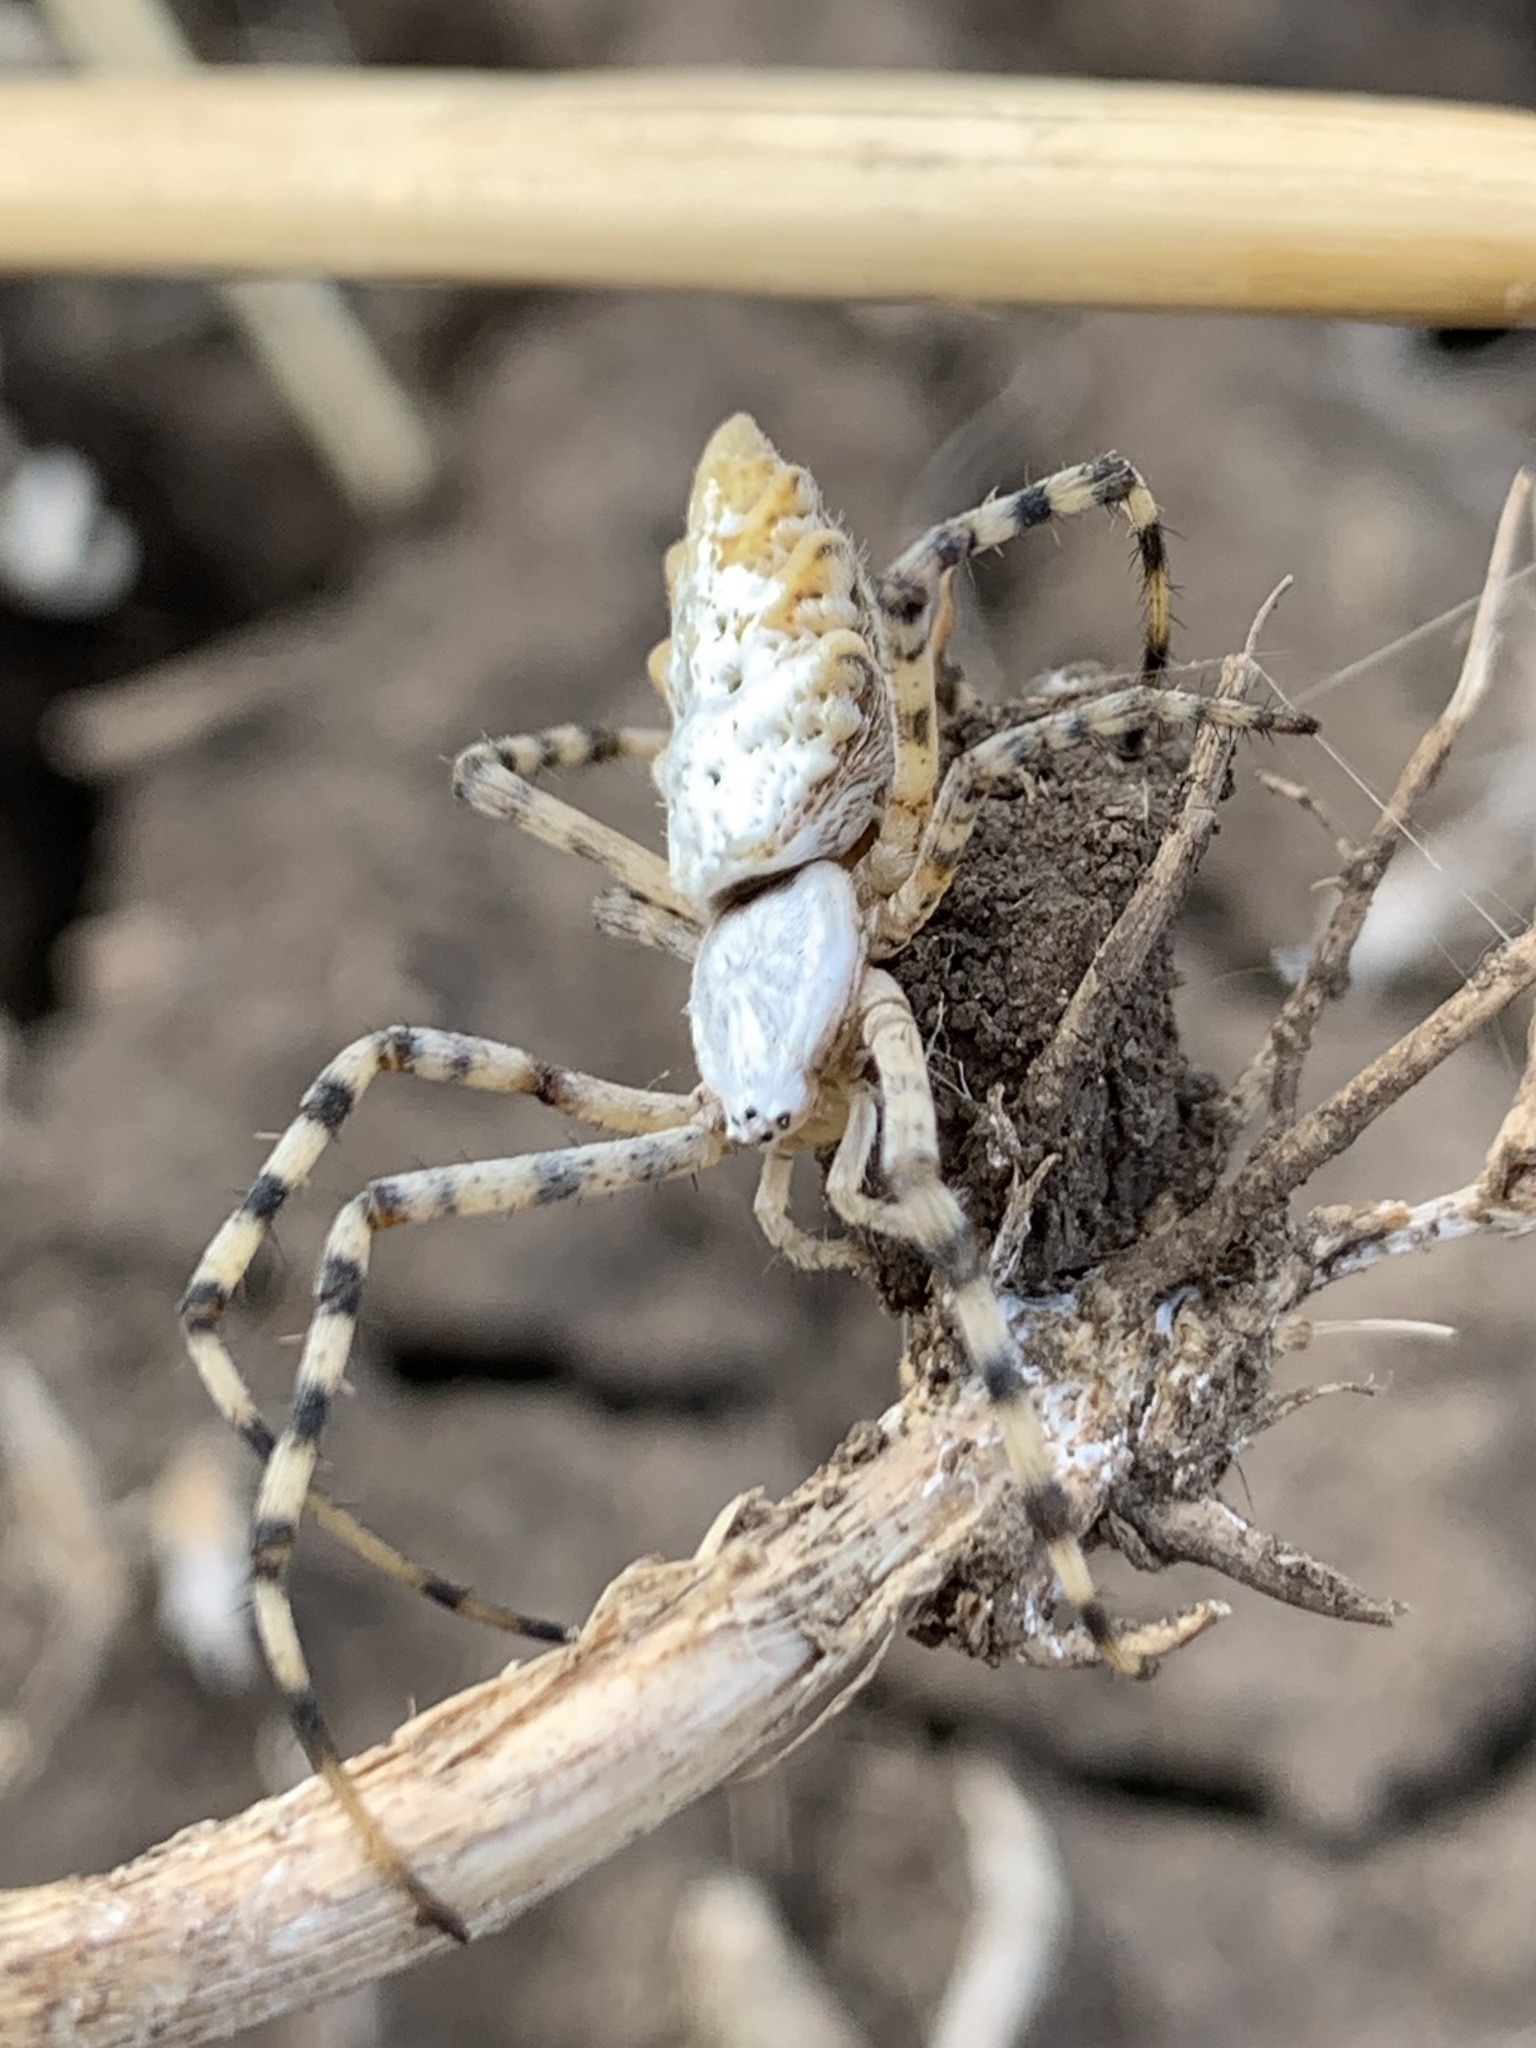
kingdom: Animalia
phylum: Arthropoda
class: Arachnida
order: Araneae
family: Araneidae
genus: Argiope
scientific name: Argiope lobata
